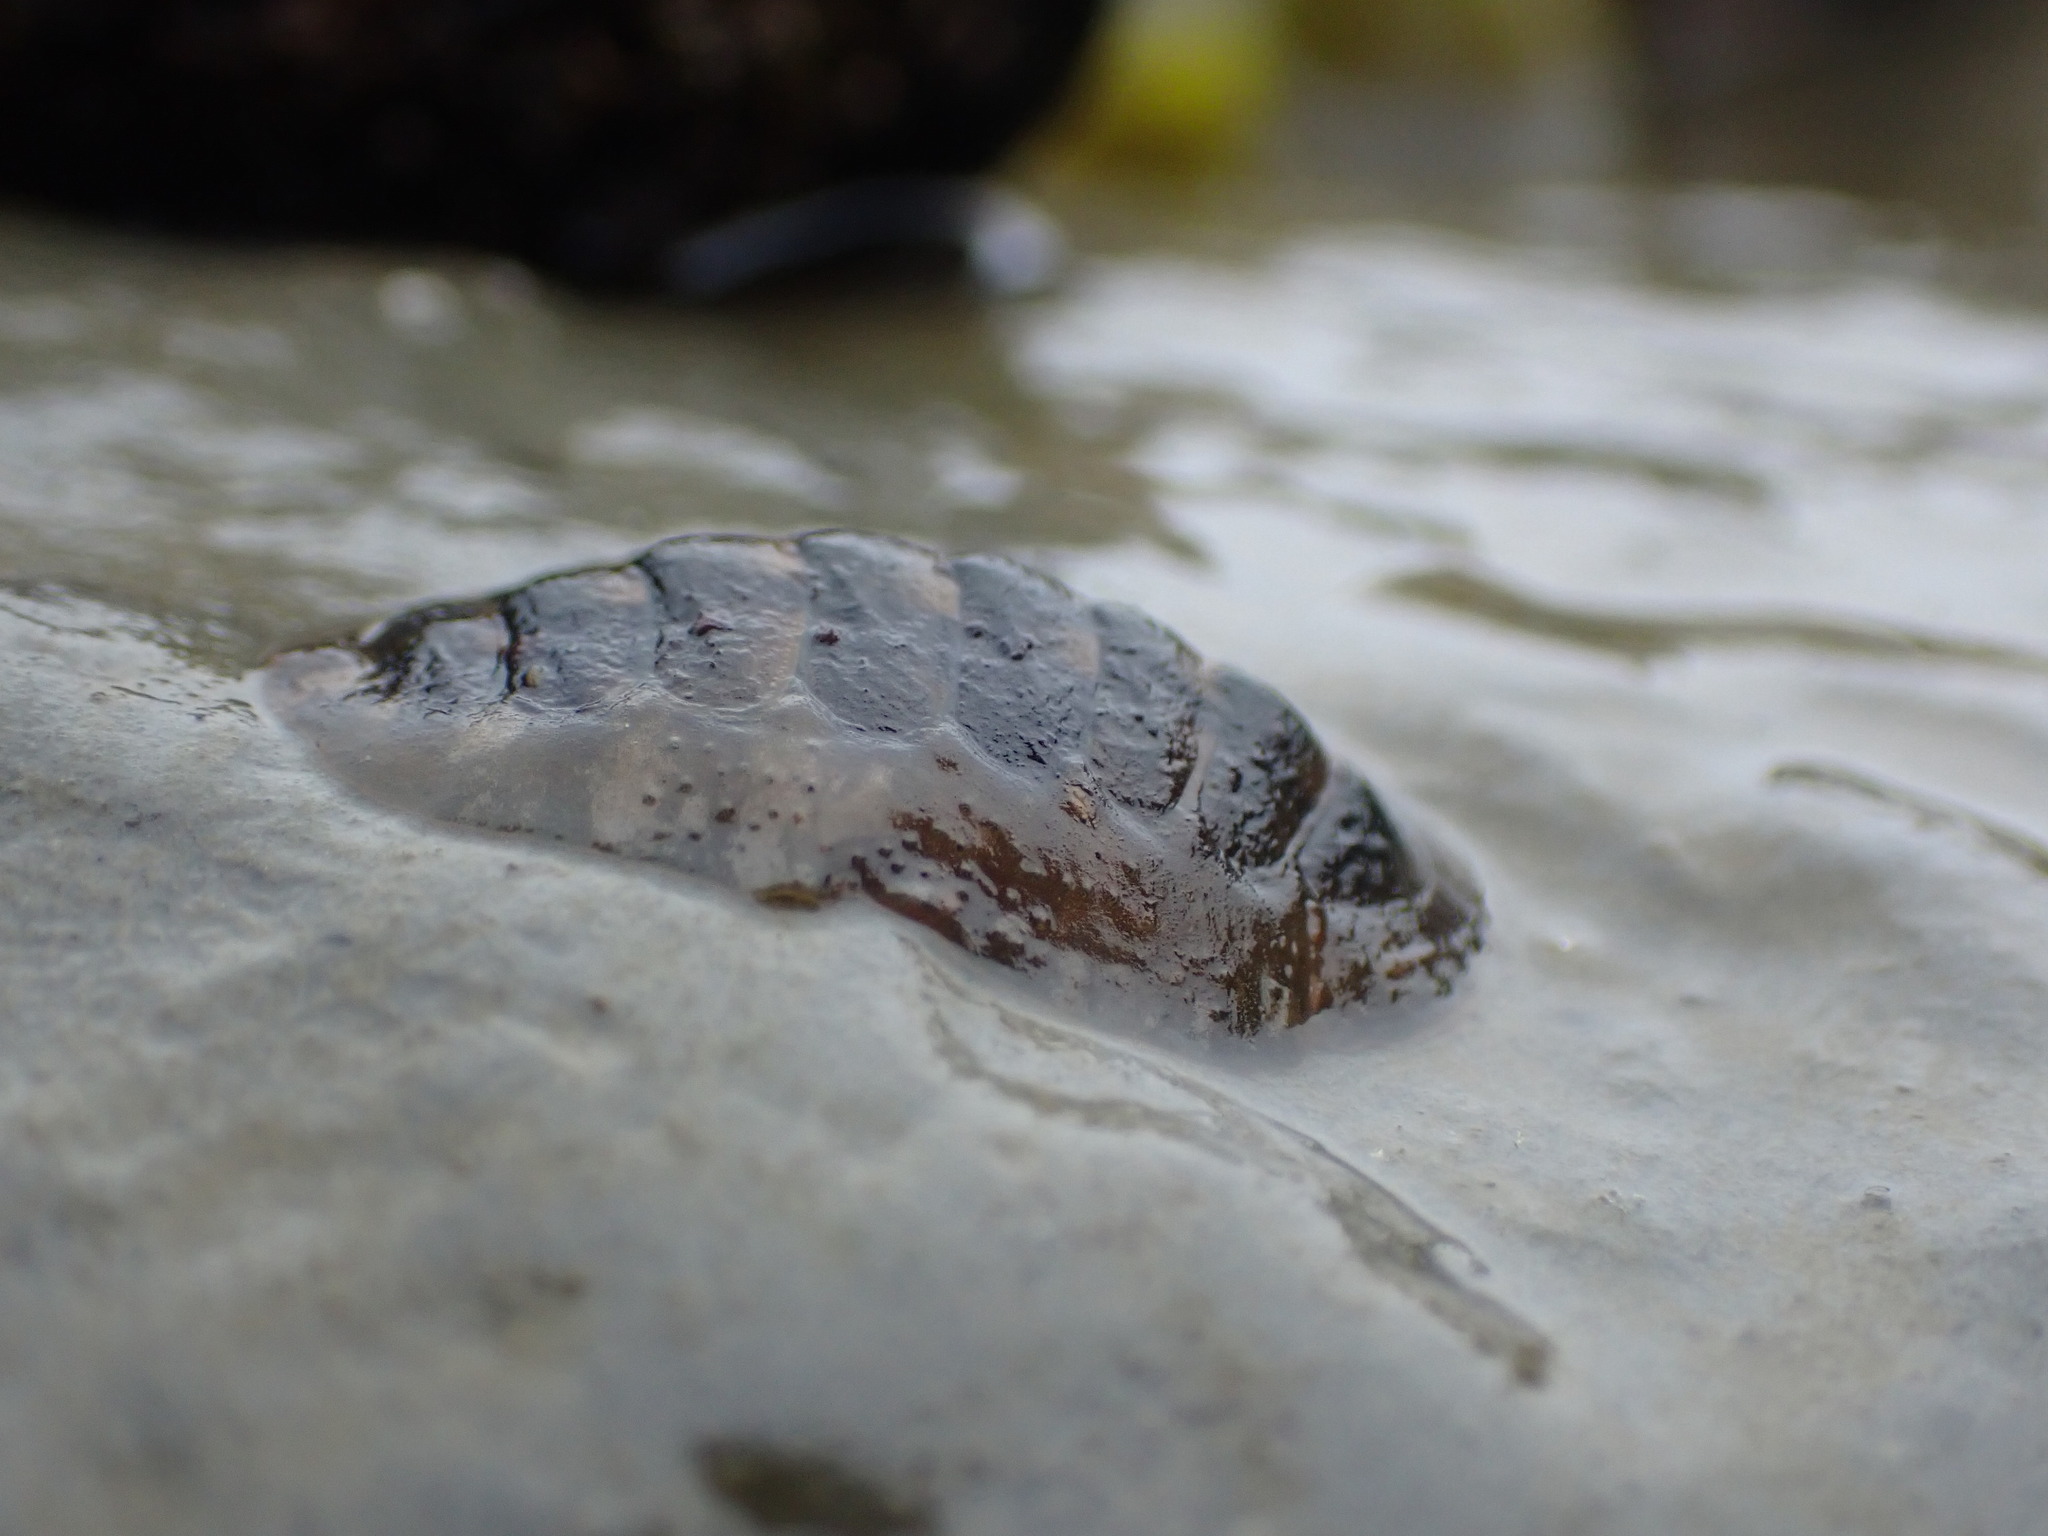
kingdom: Animalia
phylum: Mollusca
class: Polyplacophora
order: Chitonida
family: Tonicellidae
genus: Cyanoplax
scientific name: Cyanoplax hartwegii
